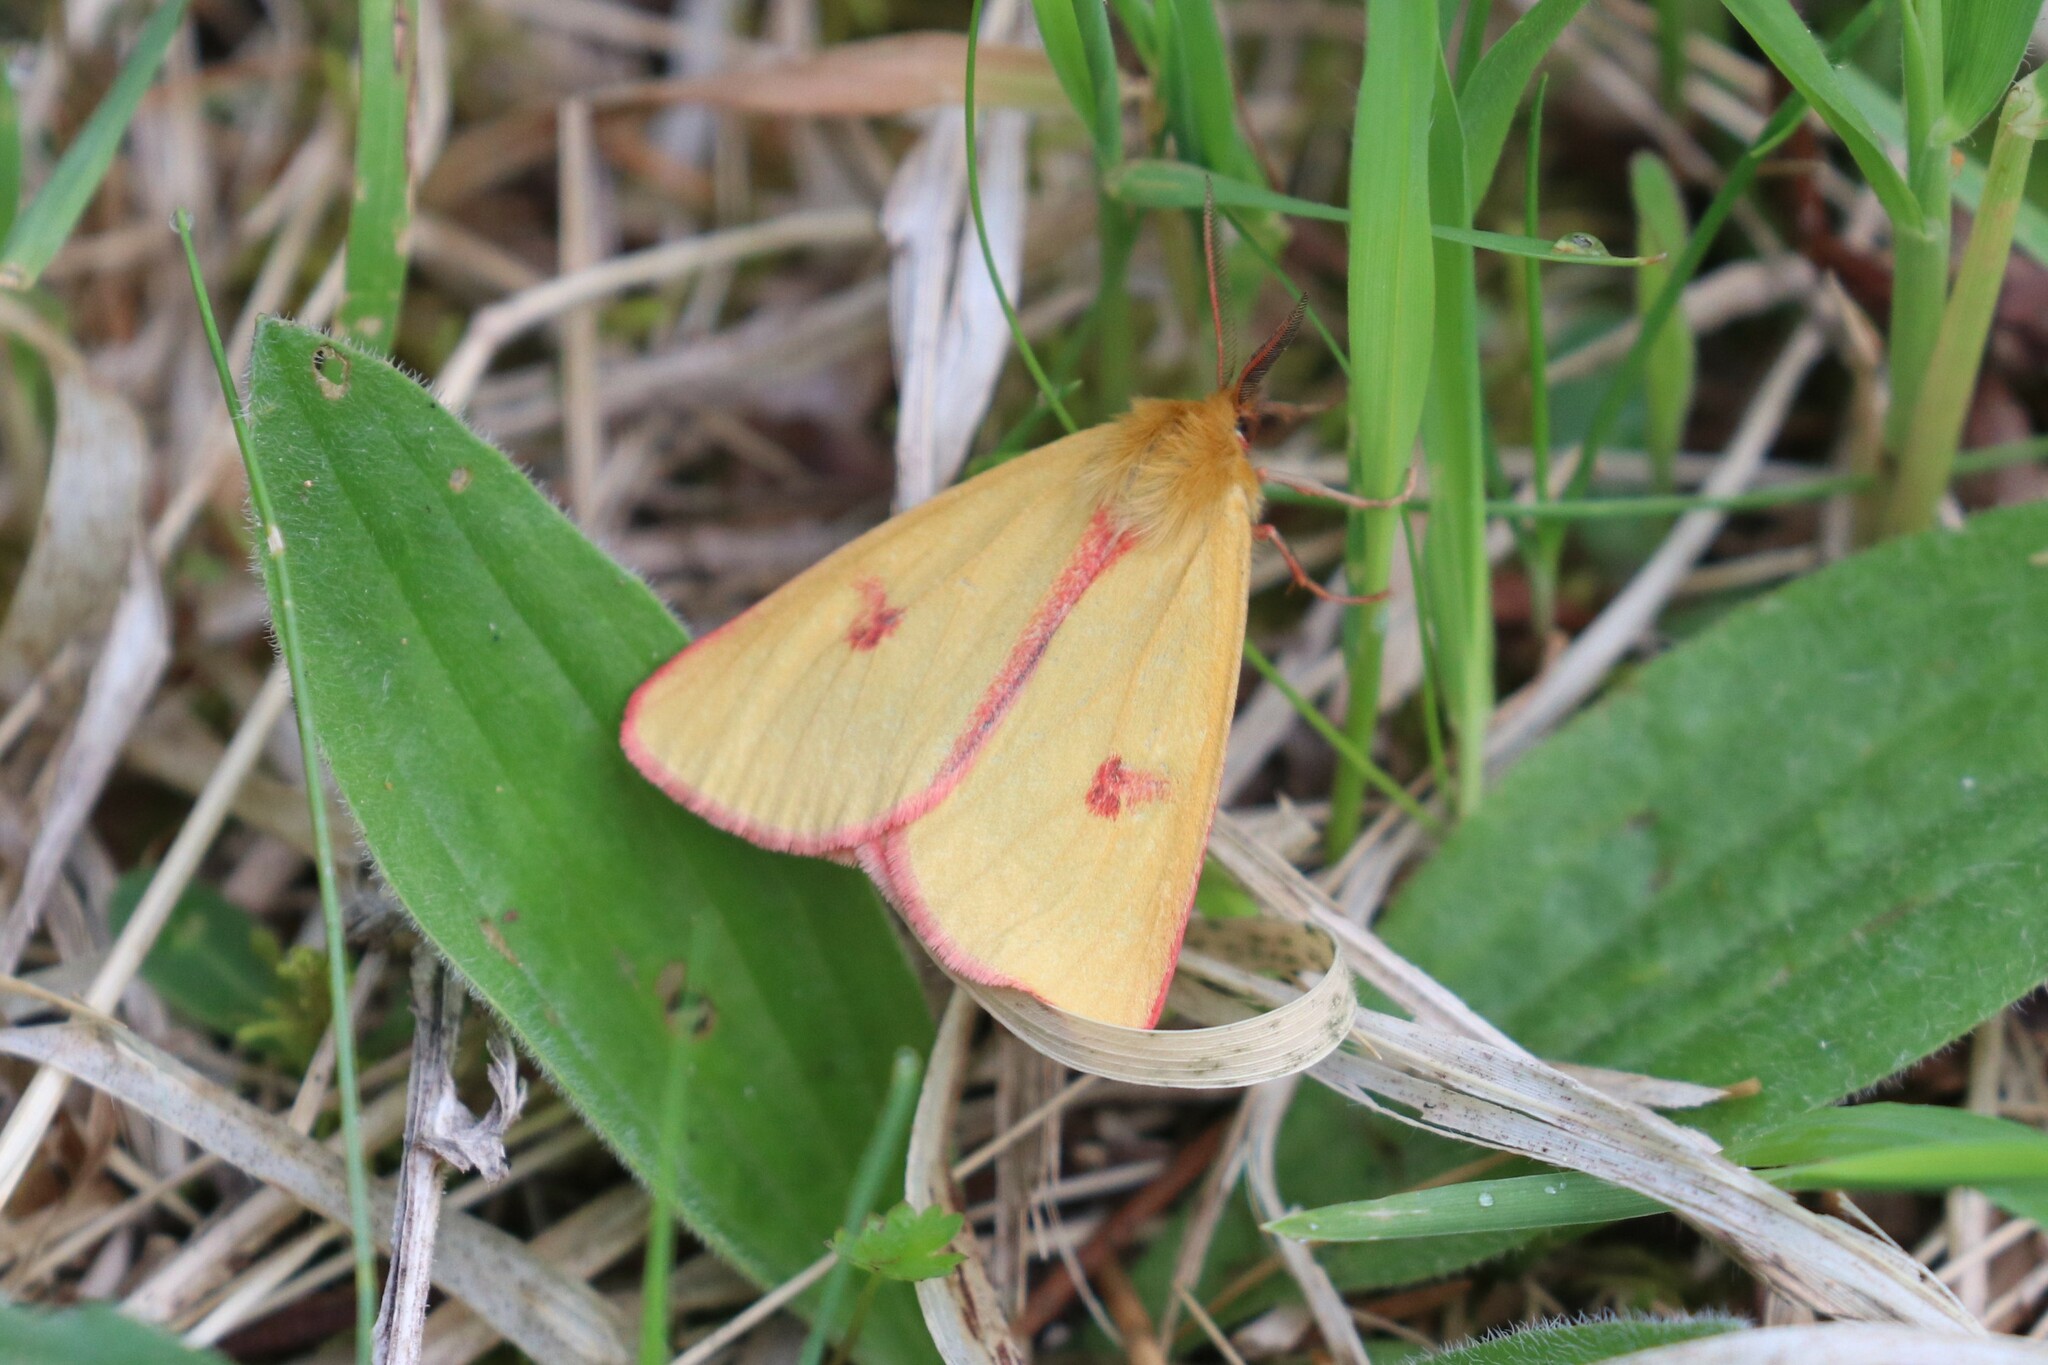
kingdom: Animalia
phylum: Arthropoda
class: Insecta
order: Lepidoptera
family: Erebidae
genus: Diacrisia
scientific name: Diacrisia sannio
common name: Clouded buff
